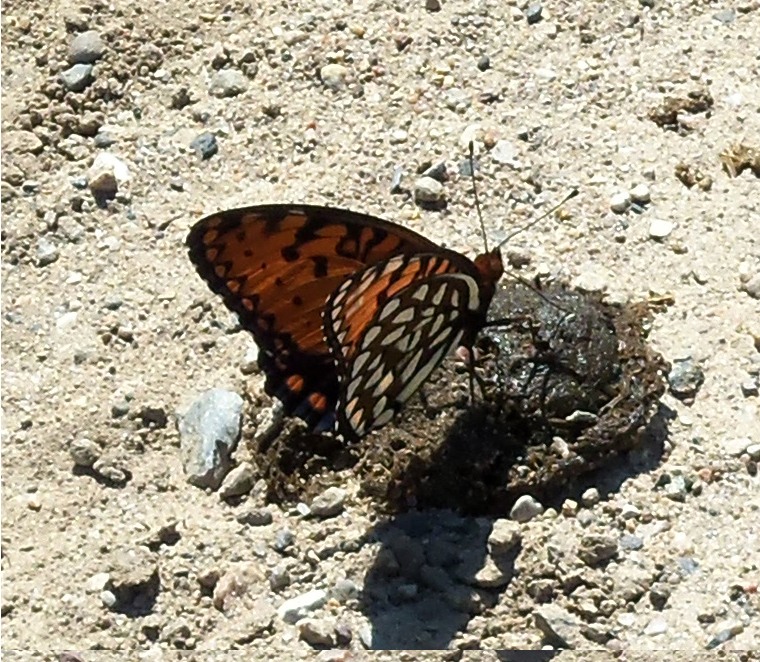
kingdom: Animalia
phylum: Arthropoda
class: Insecta
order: Lepidoptera
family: Nymphalidae
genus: Speyeria
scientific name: Speyeria idalia
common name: Regal fritillary
